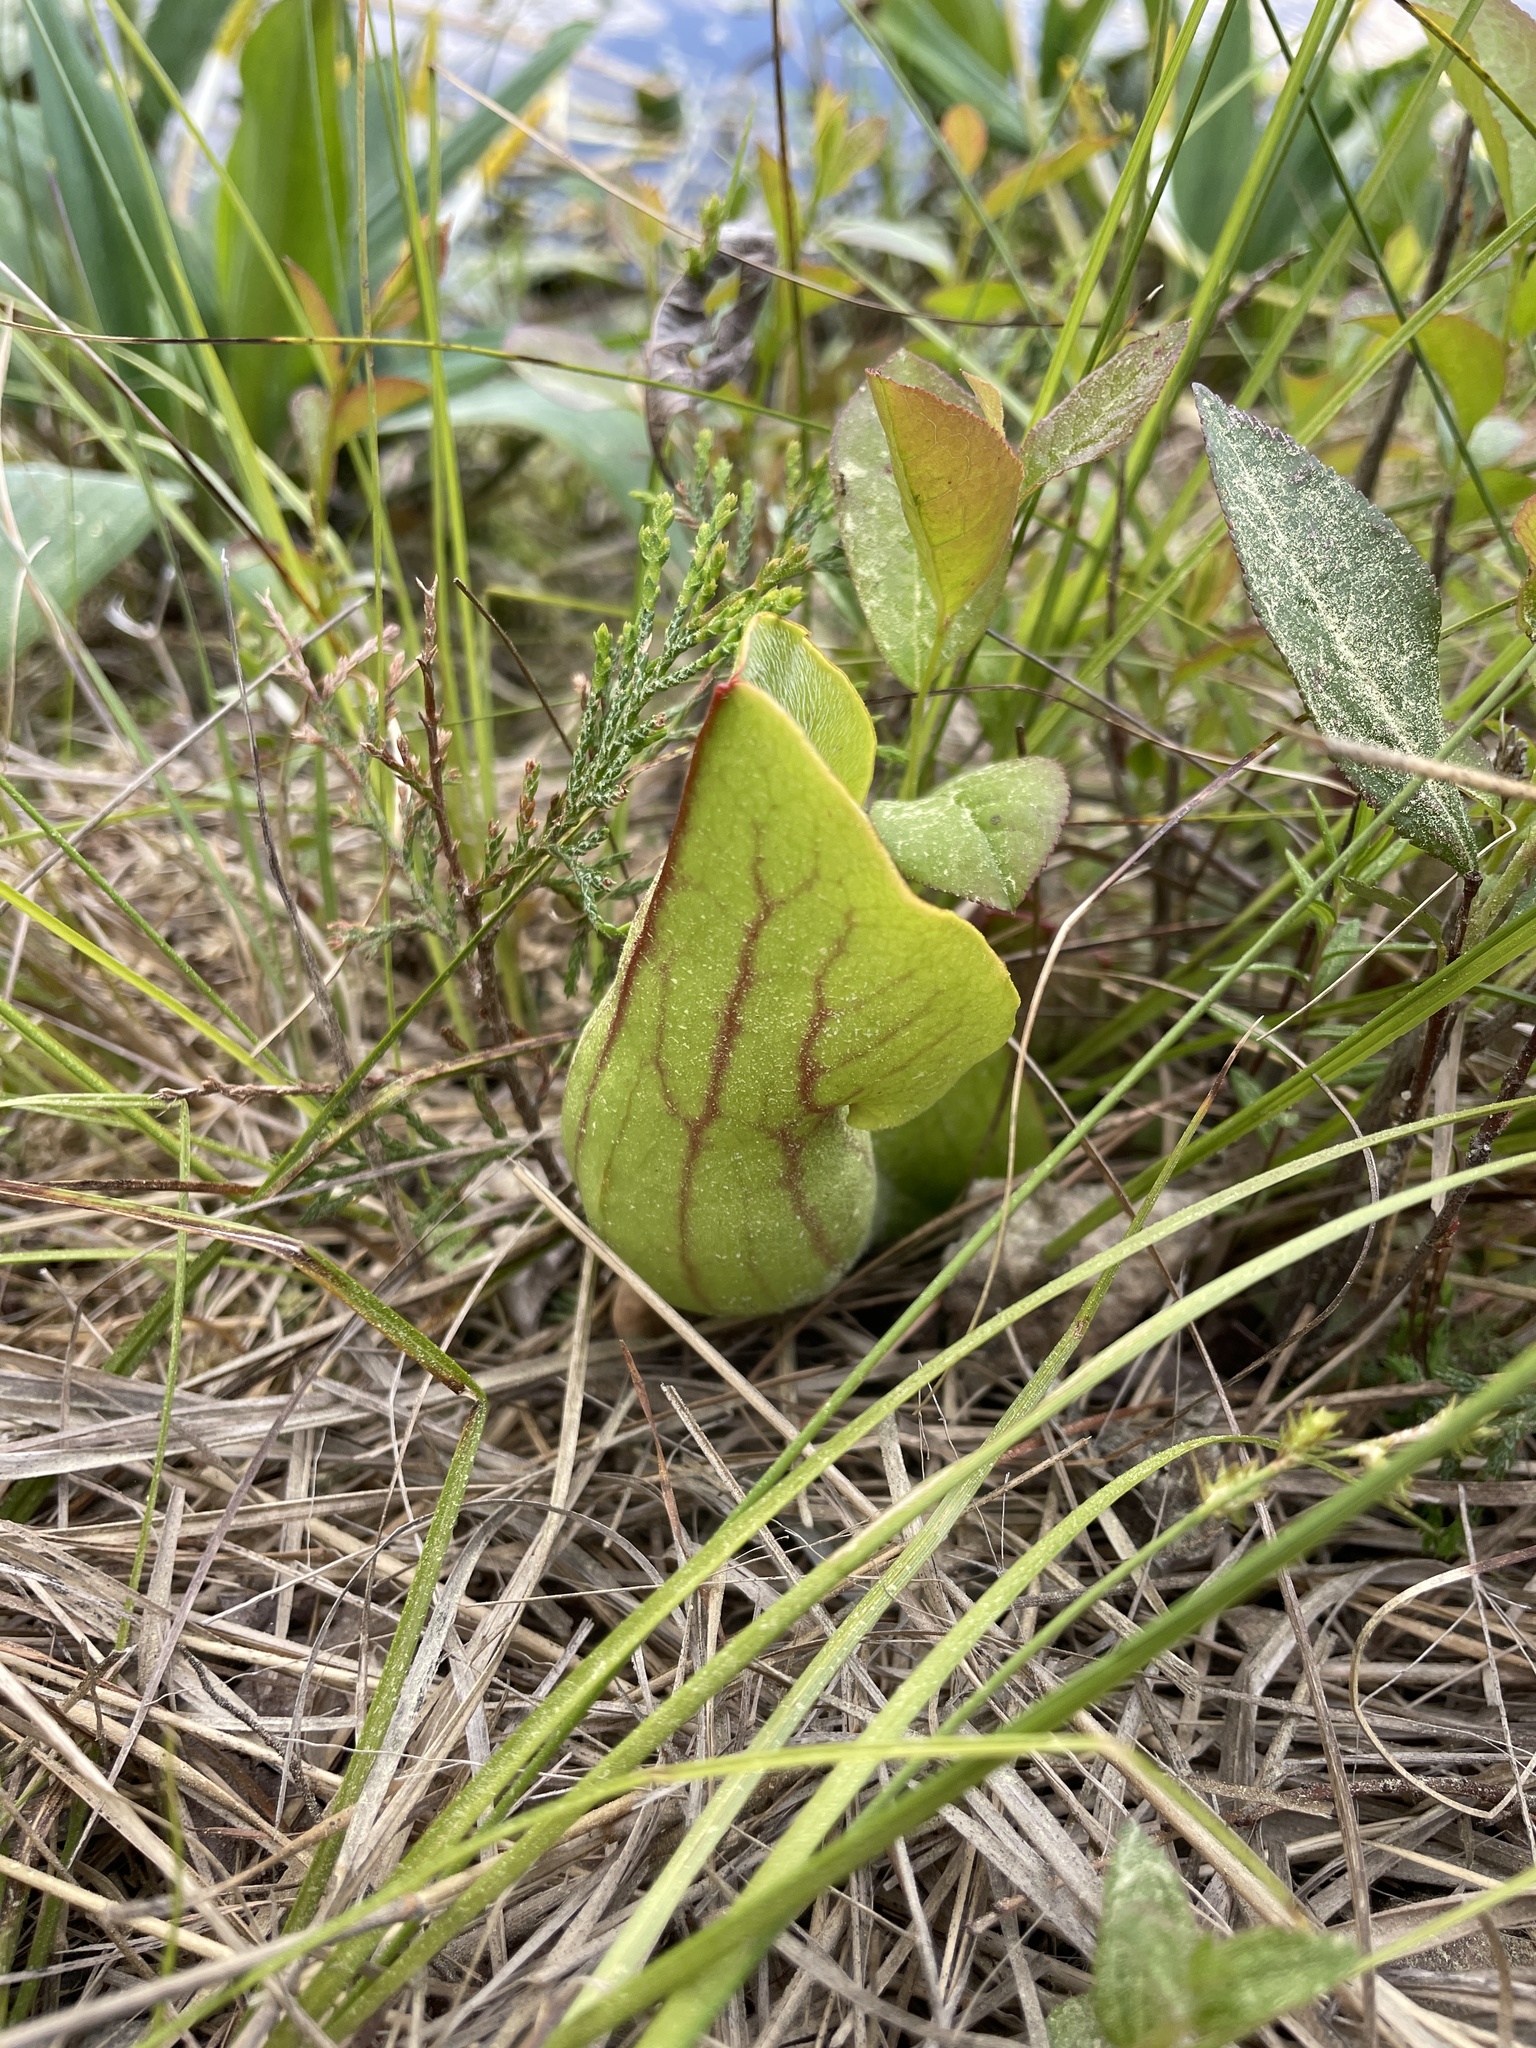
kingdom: Plantae
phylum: Tracheophyta
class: Magnoliopsida
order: Ericales
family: Sarraceniaceae
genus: Sarracenia
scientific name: Sarracenia purpurea
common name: Pitcherplant
